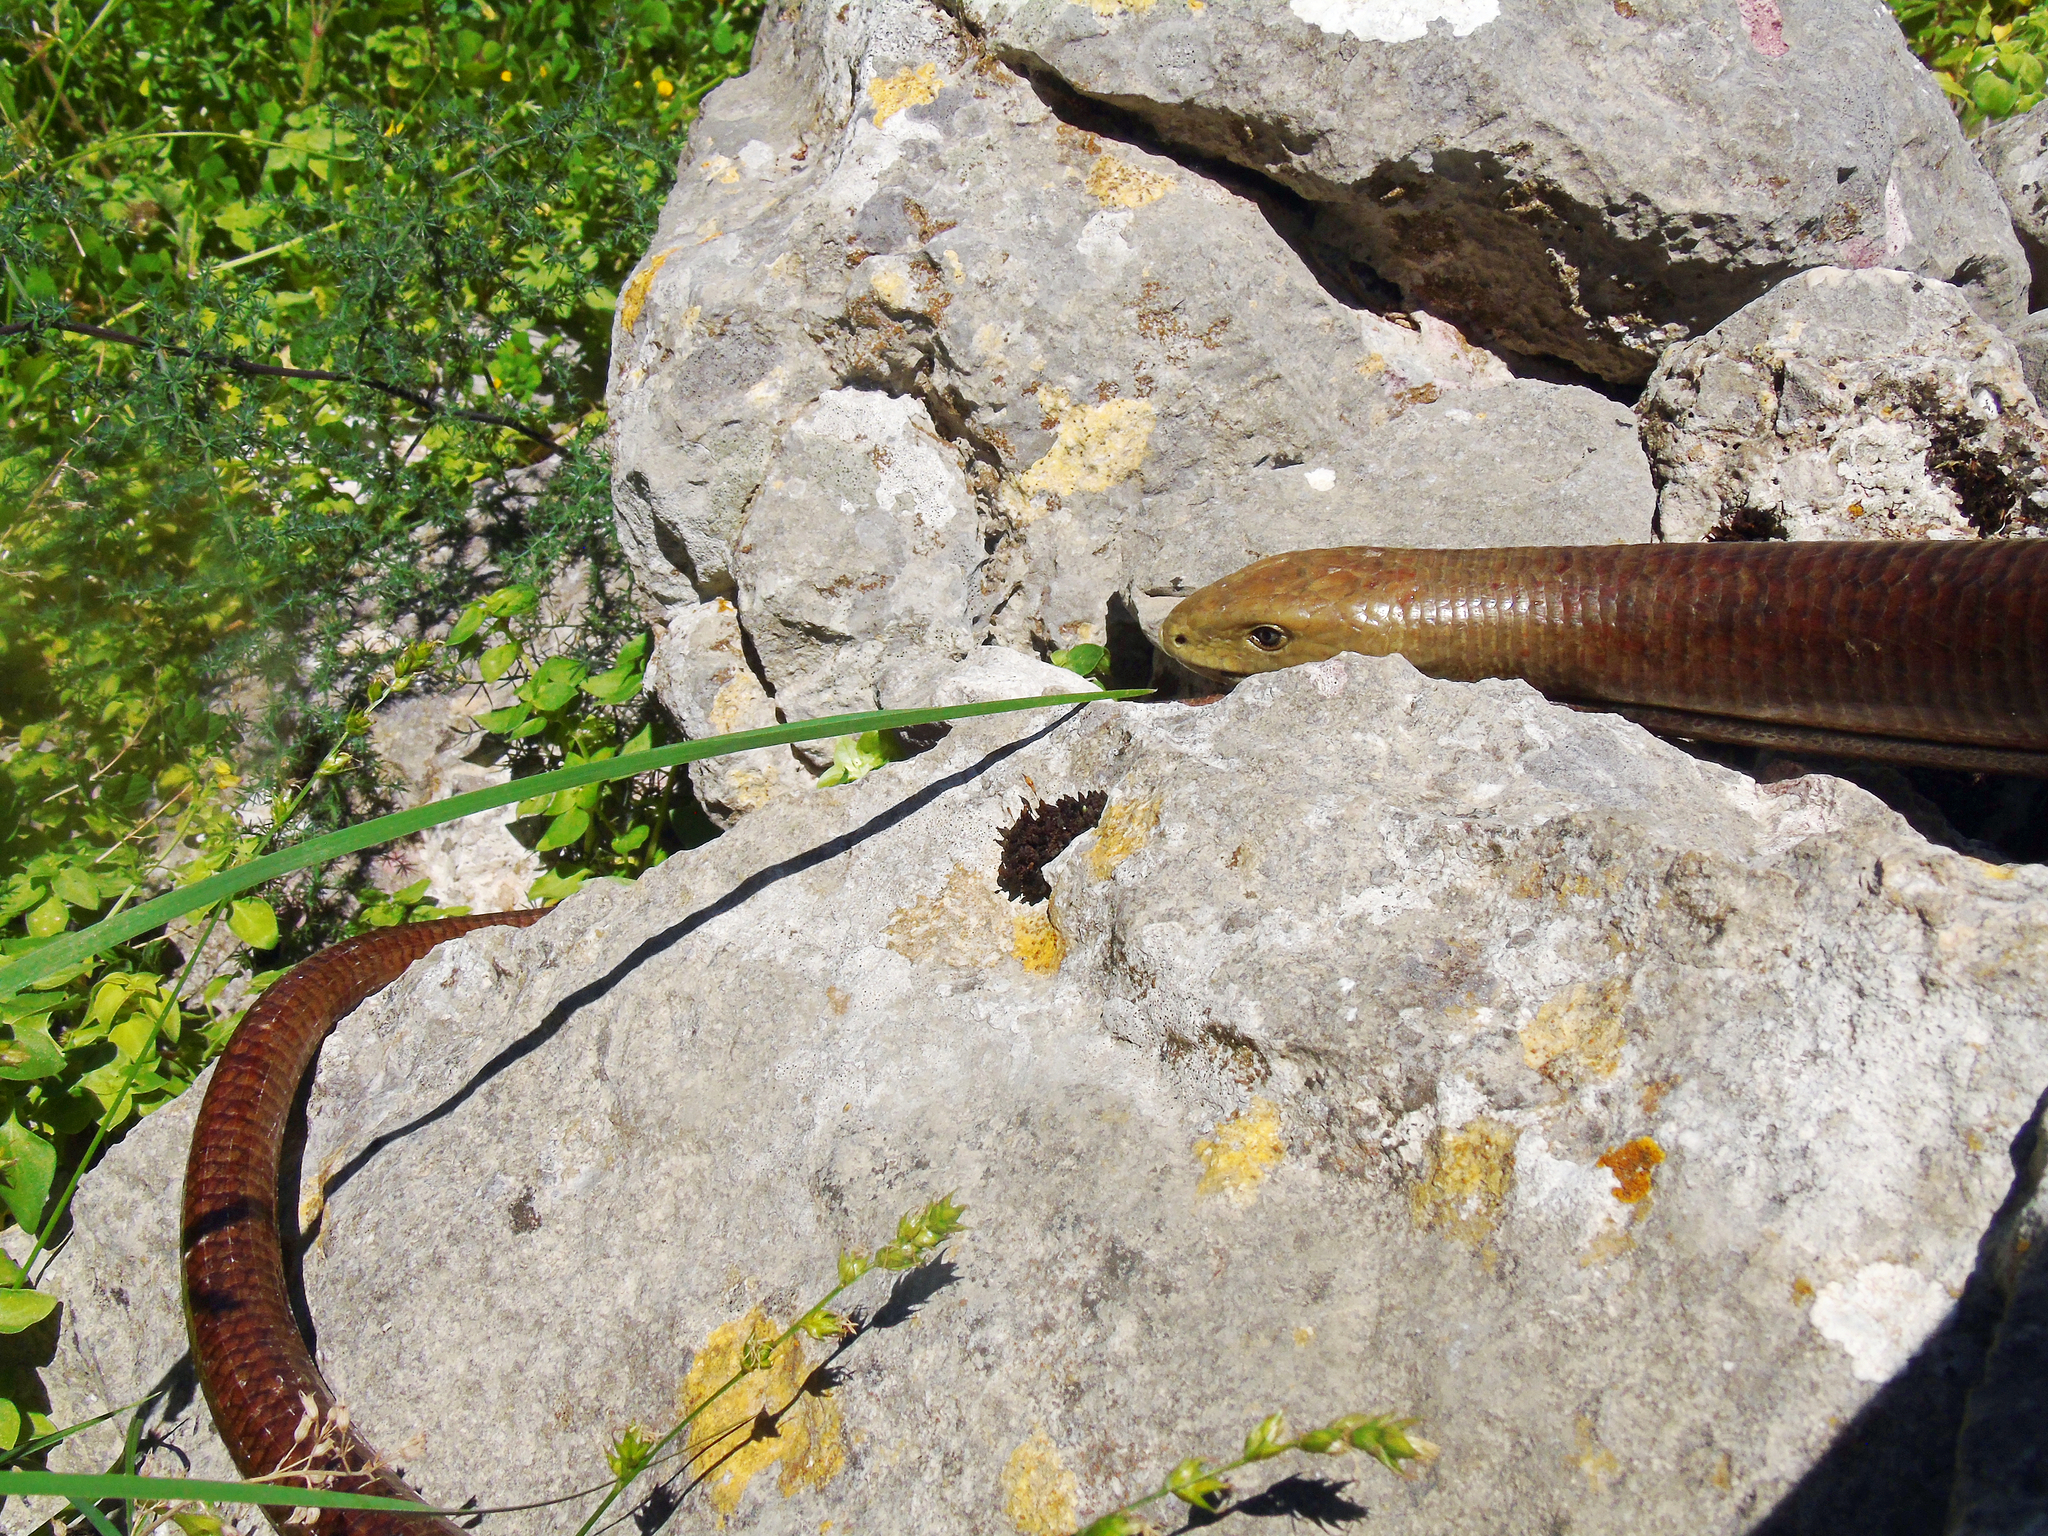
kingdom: Animalia
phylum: Chordata
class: Squamata
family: Anguidae
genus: Pseudopus
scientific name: Pseudopus apodus
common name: European glass lizard
